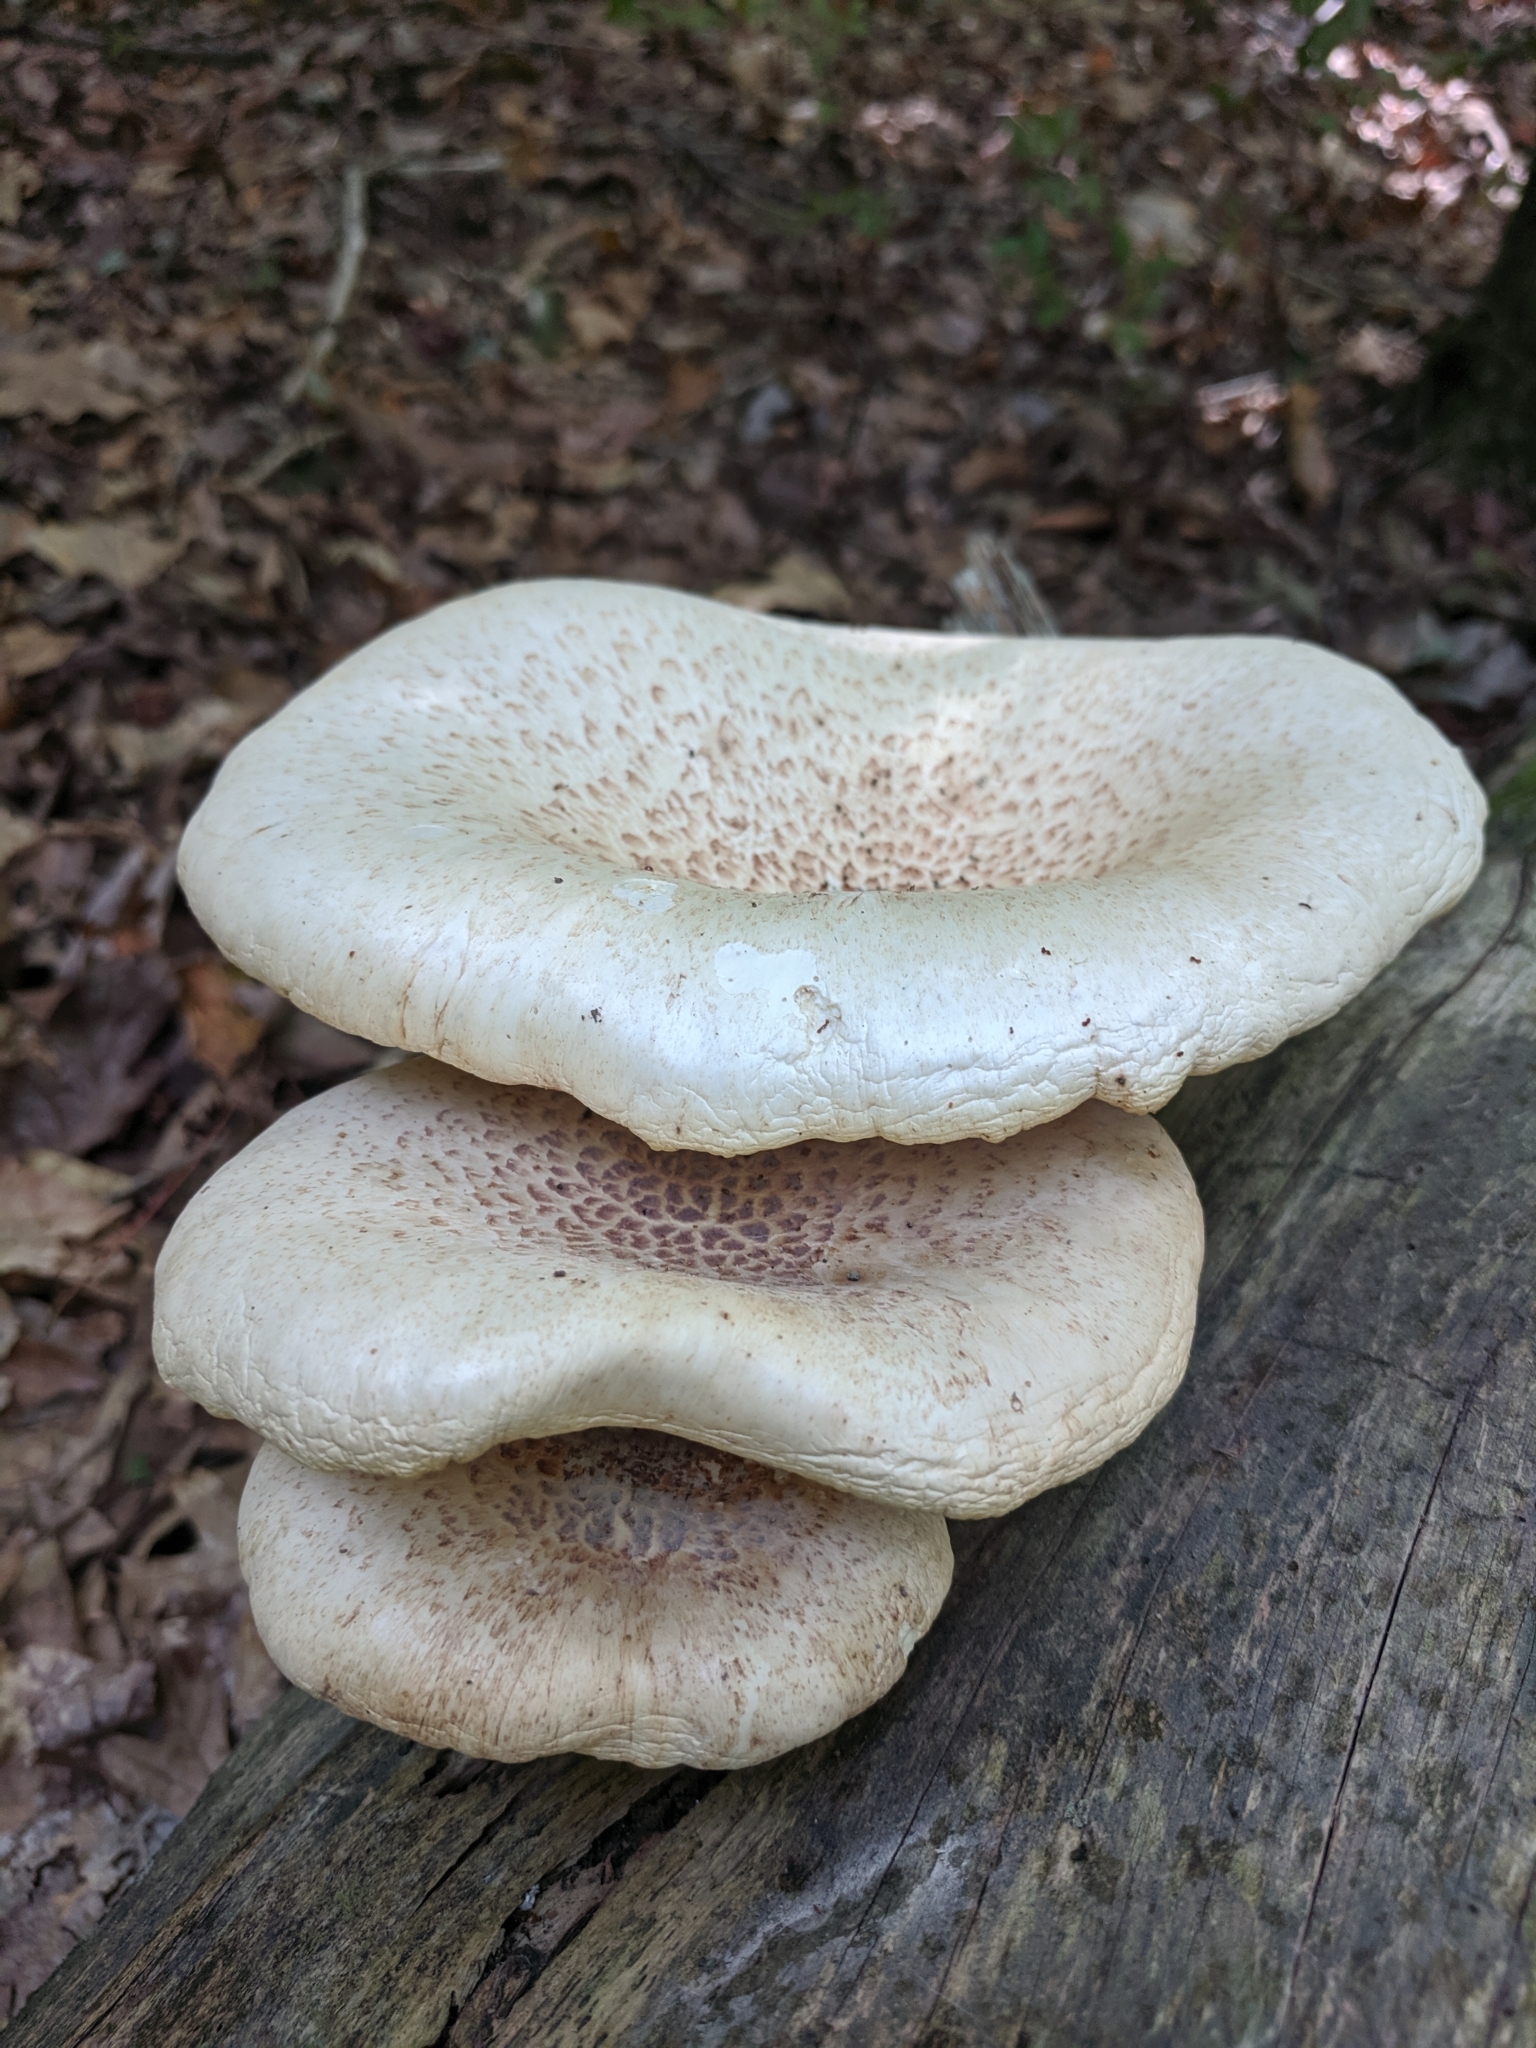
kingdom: Fungi
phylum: Basidiomycota
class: Agaricomycetes
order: Gloeophyllales
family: Gloeophyllaceae
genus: Neolentinus
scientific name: Neolentinus lepideus
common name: Scaly sawgill
